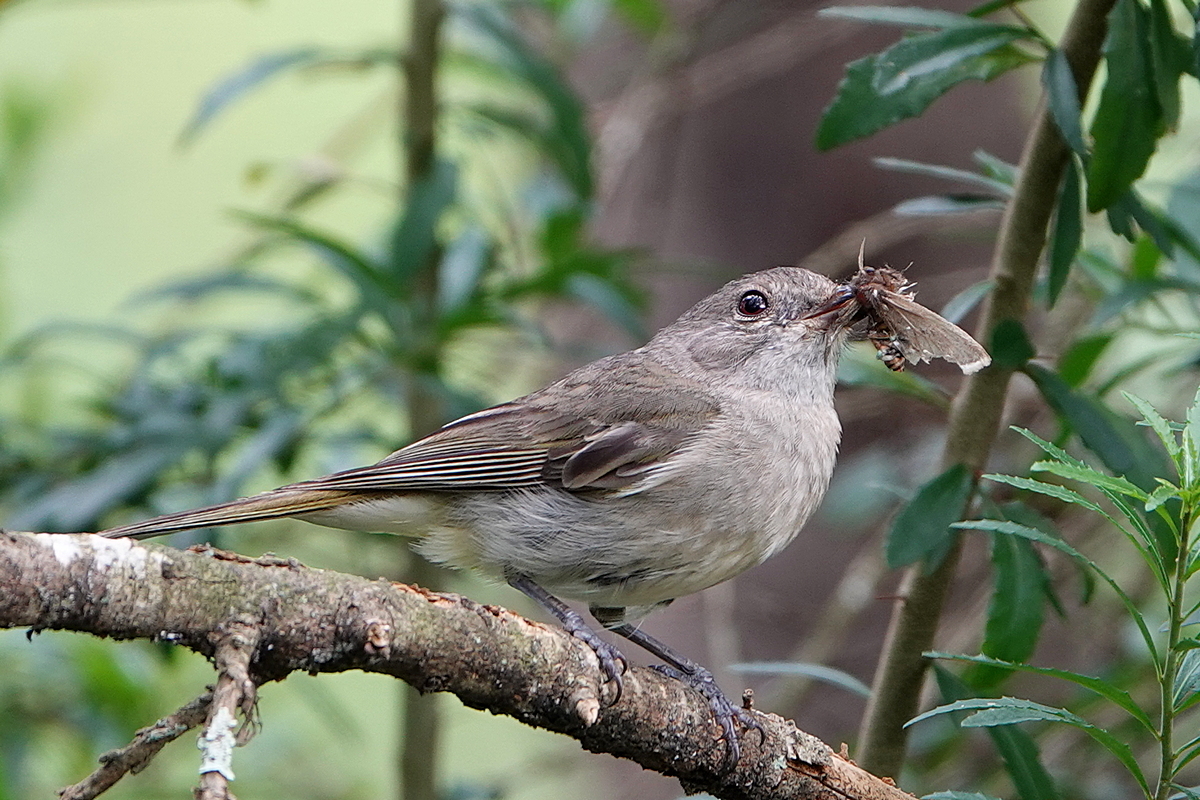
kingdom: Animalia
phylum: Chordata
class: Aves
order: Passeriformes
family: Pachycephalidae
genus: Pachycephala
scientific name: Pachycephala pectoralis
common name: Australian golden whistler
